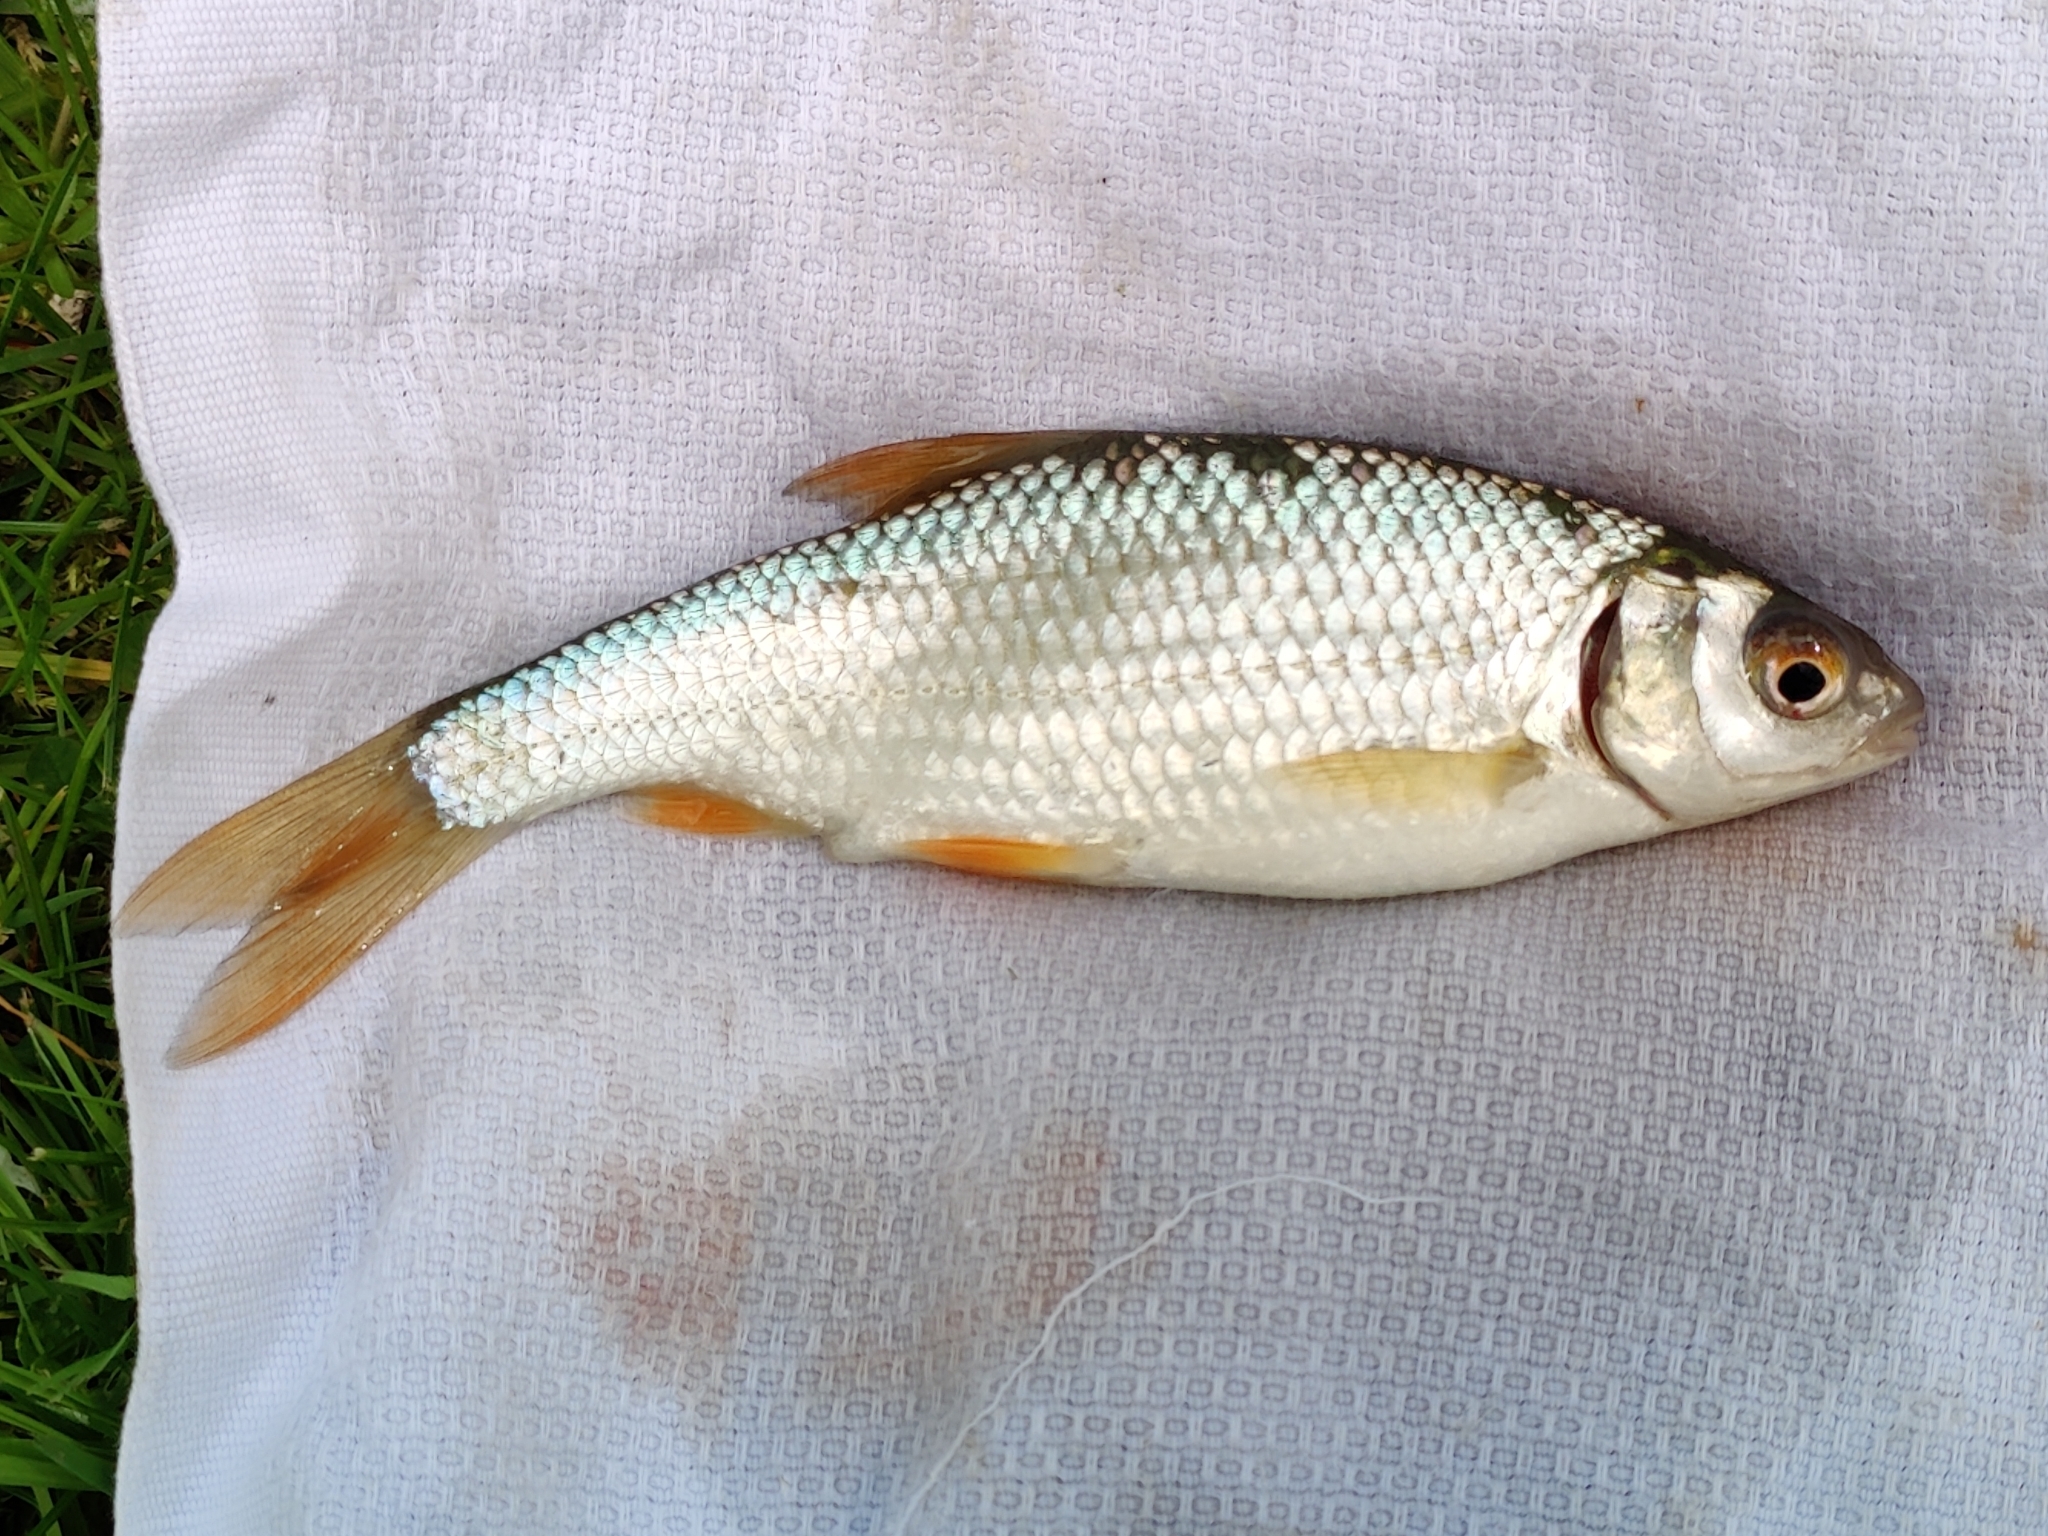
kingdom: Animalia
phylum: Chordata
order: Cypriniformes
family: Cyprinidae
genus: Rutilus
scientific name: Rutilus rutilus
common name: Roach
